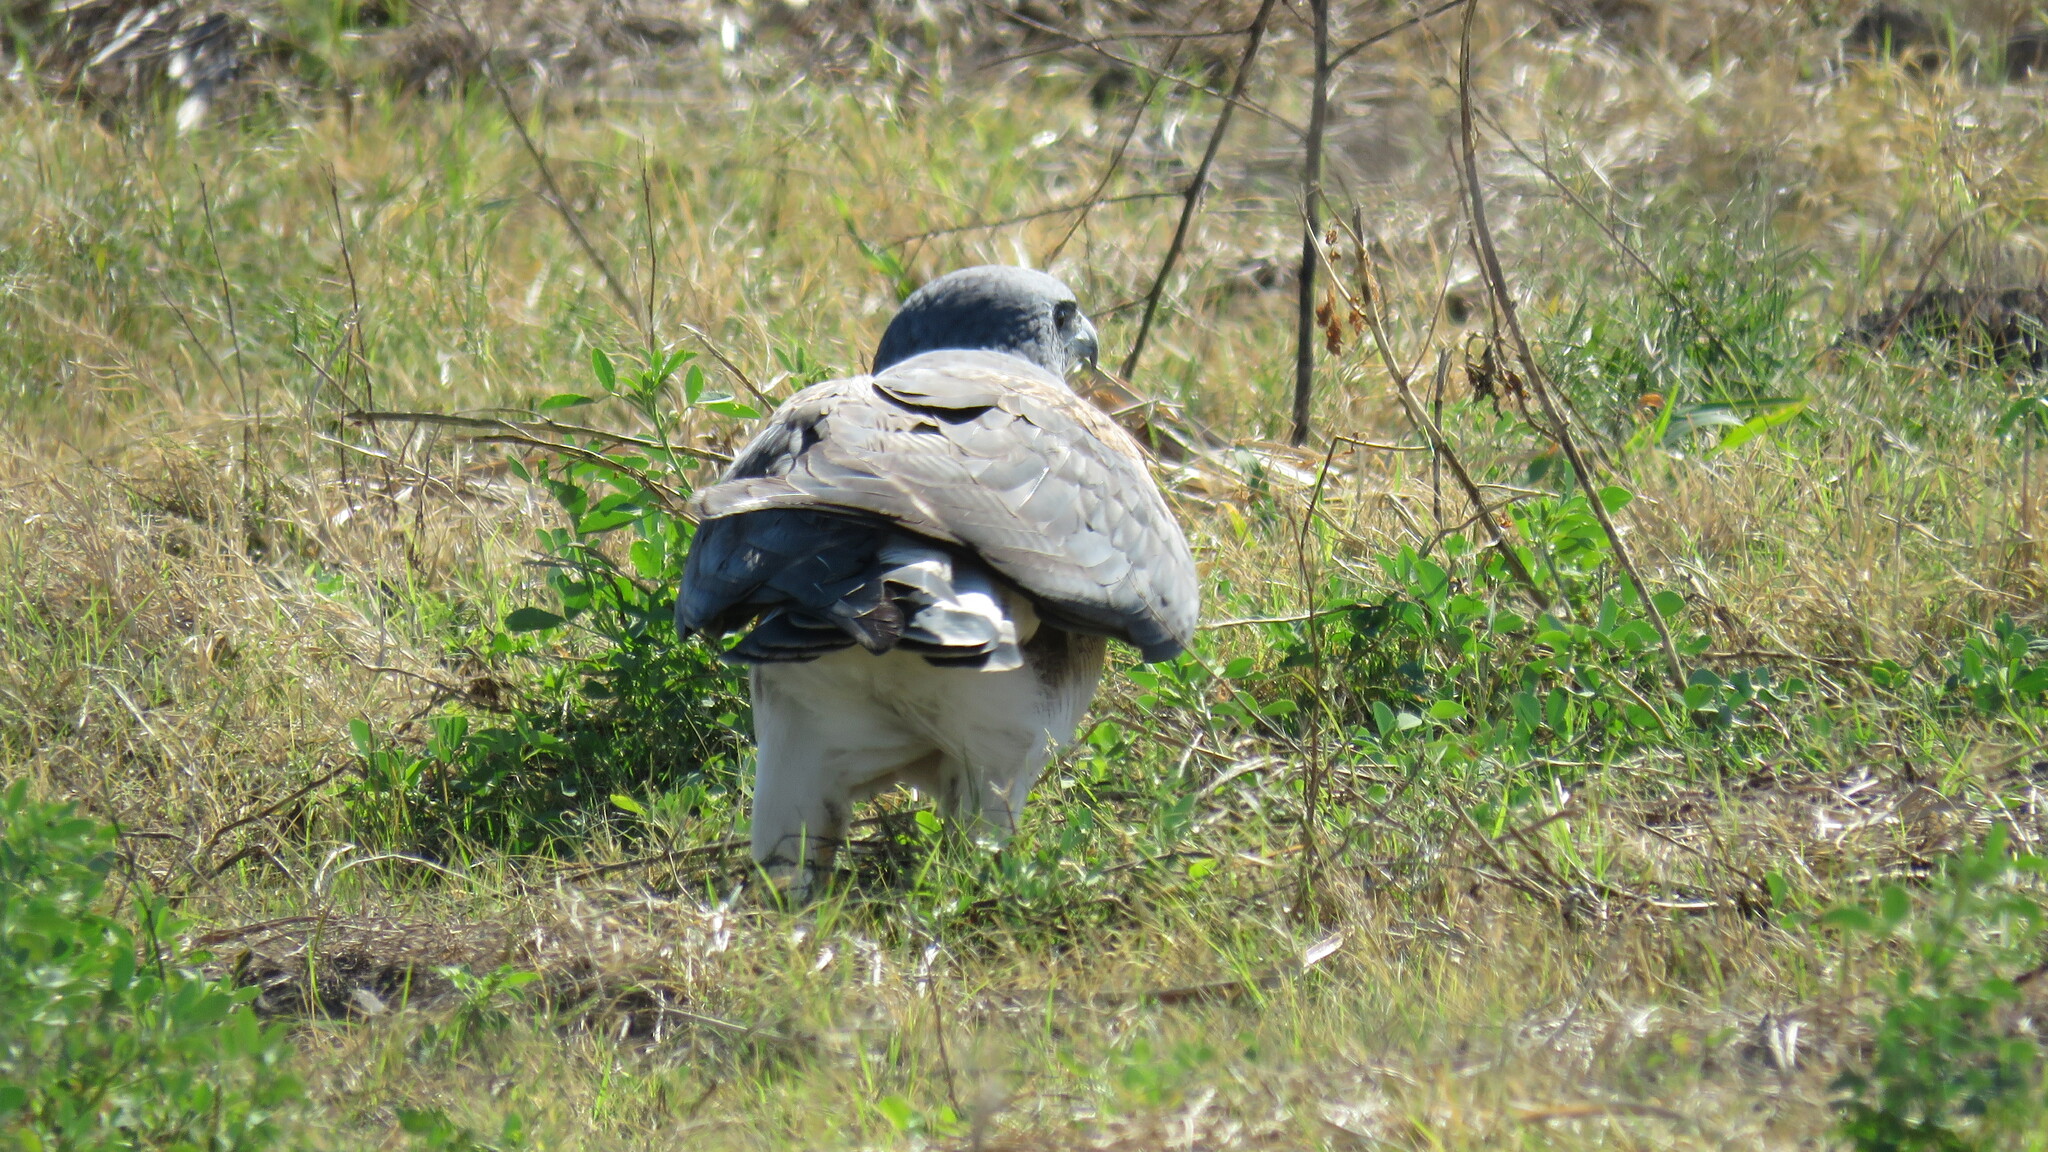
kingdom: Animalia
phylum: Chordata
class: Aves
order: Accipitriformes
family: Accipitridae
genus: Buteo
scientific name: Buteo albicaudatus
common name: White-tailed hawk
